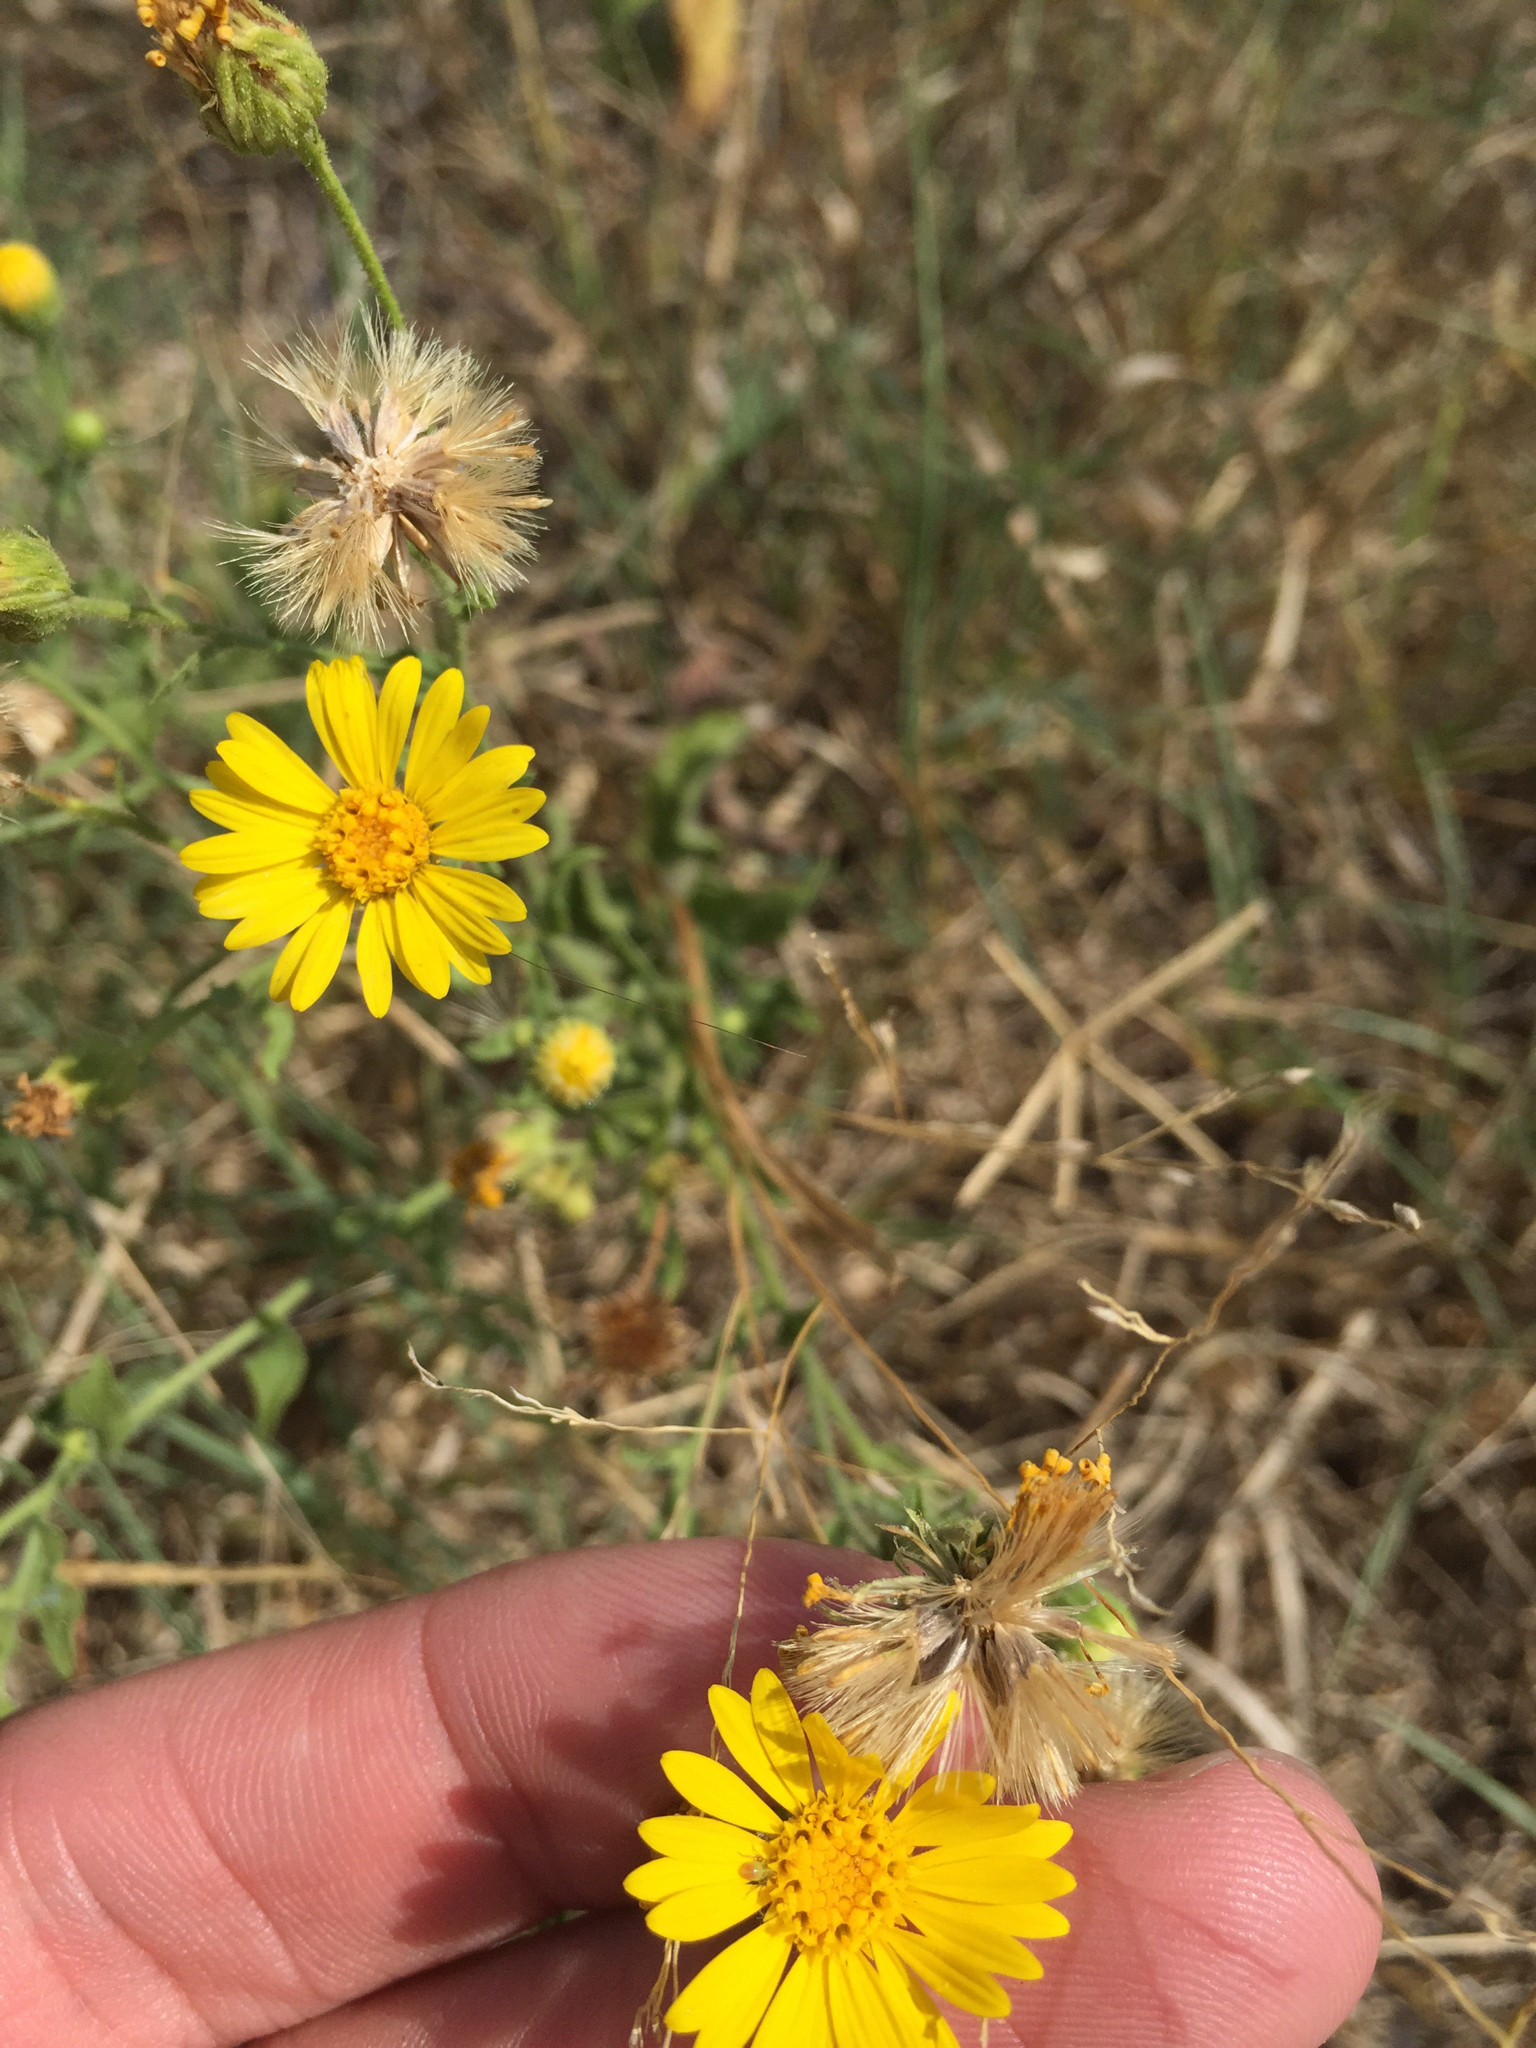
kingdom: Plantae
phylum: Tracheophyta
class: Magnoliopsida
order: Asterales
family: Asteraceae
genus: Heterotheca
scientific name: Heterotheca subaxillaris
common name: Camphorweed
